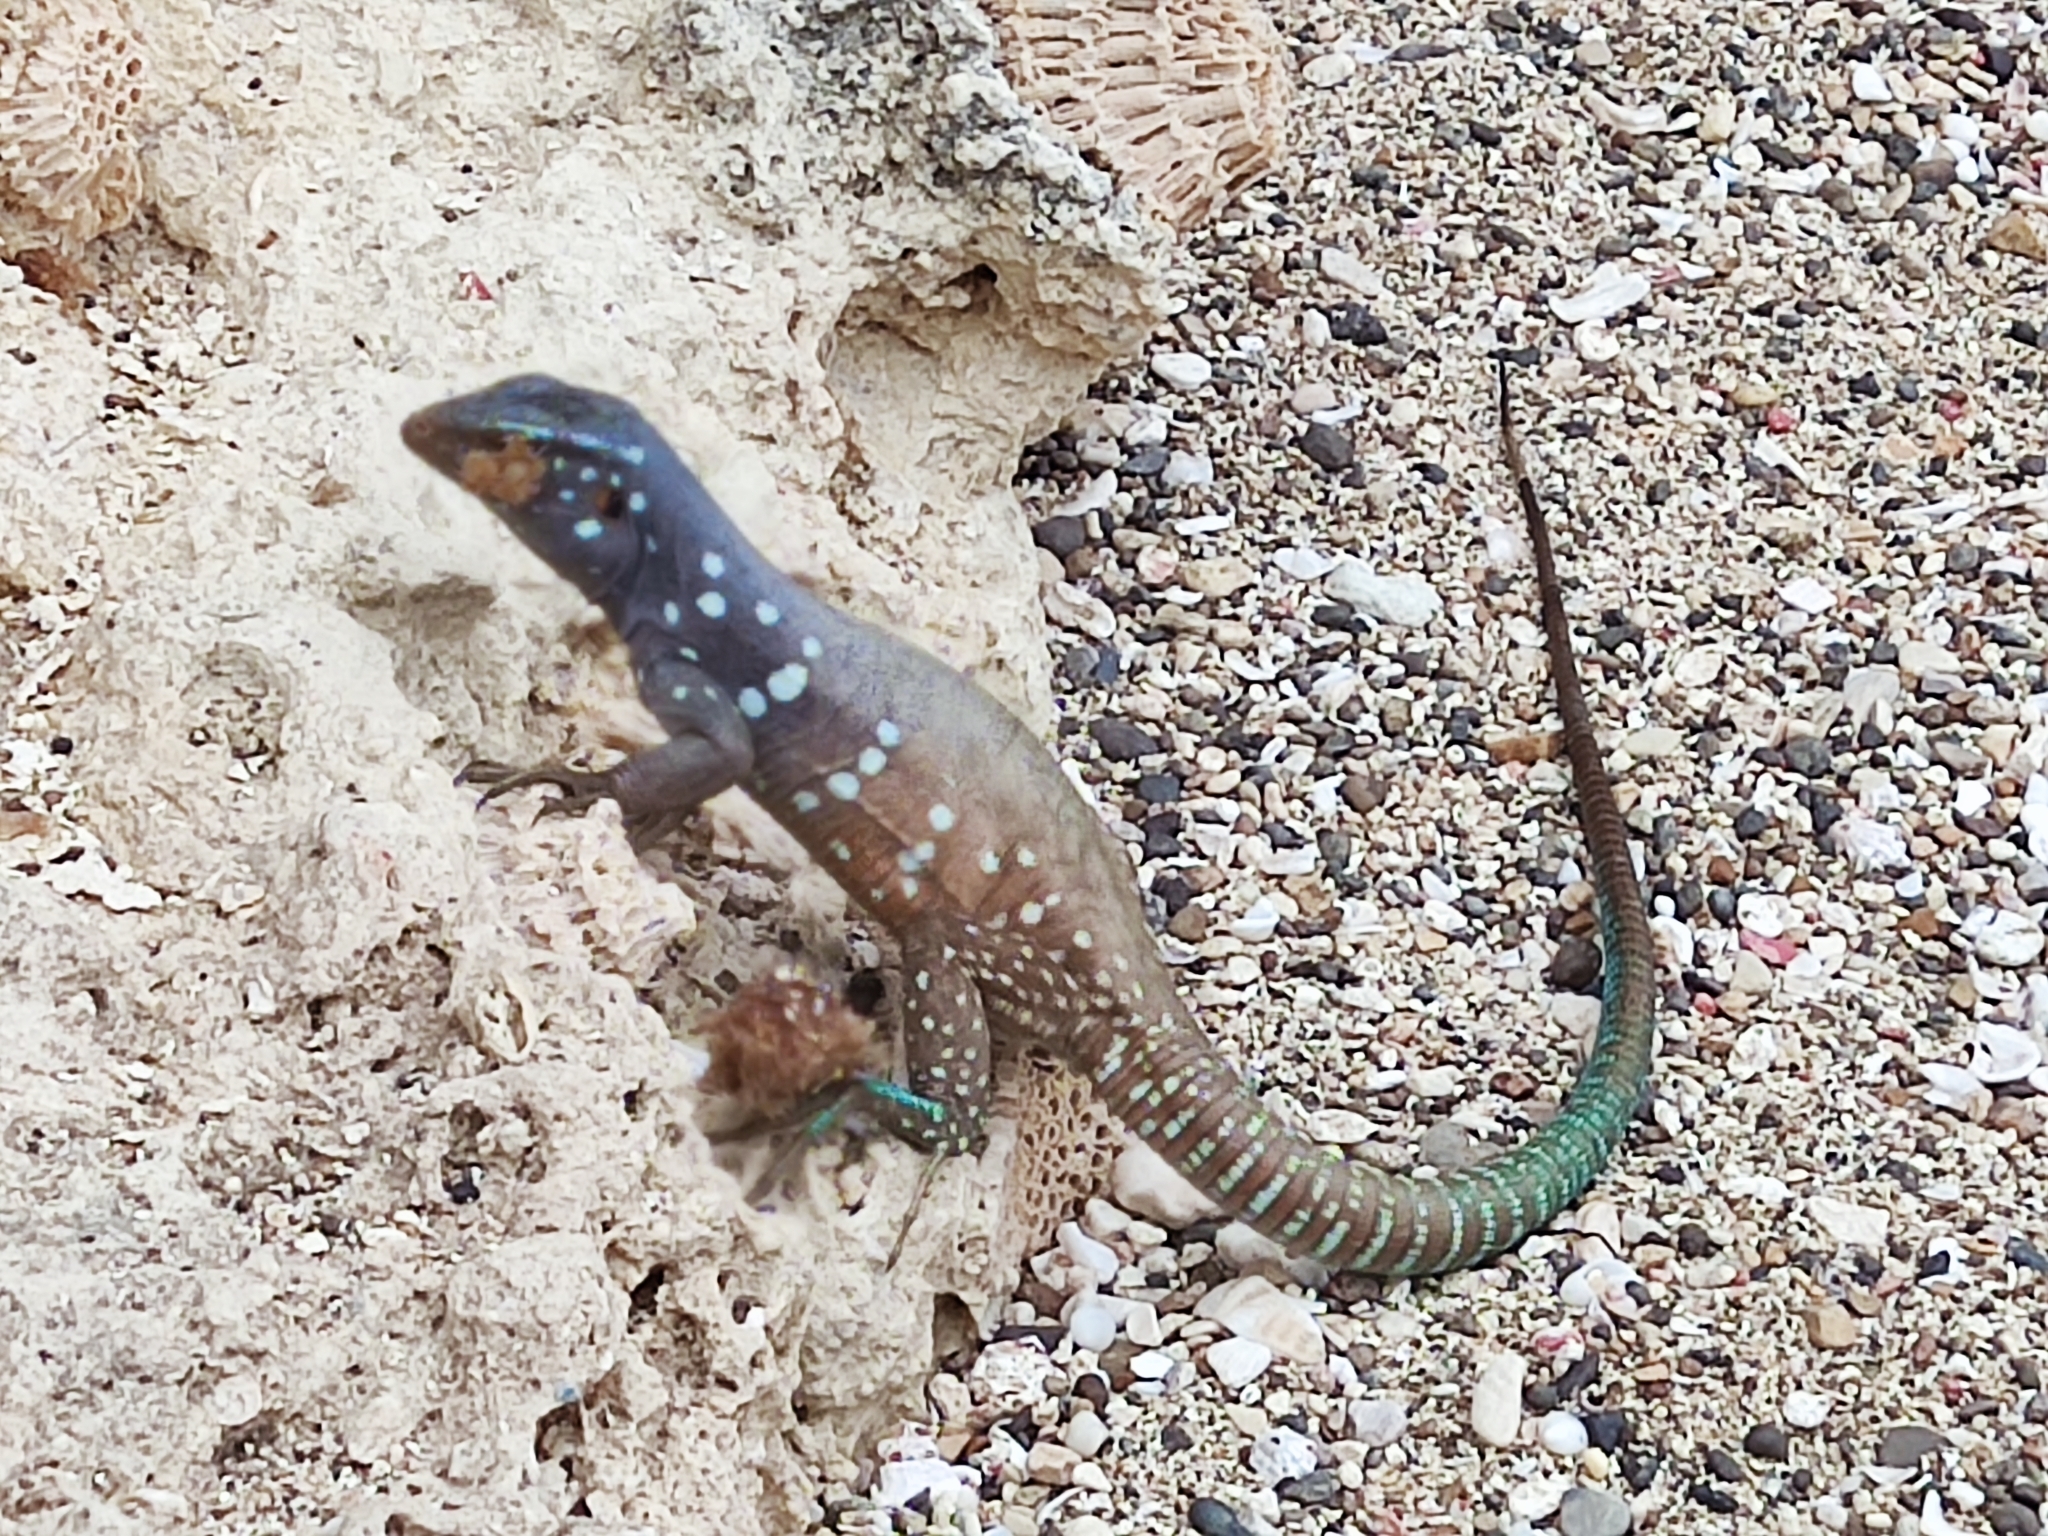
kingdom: Animalia
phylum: Chordata
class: Squamata
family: Teiidae
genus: Cnemidophorus
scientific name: Cnemidophorus ruthveni
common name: Bonaire whiptail
